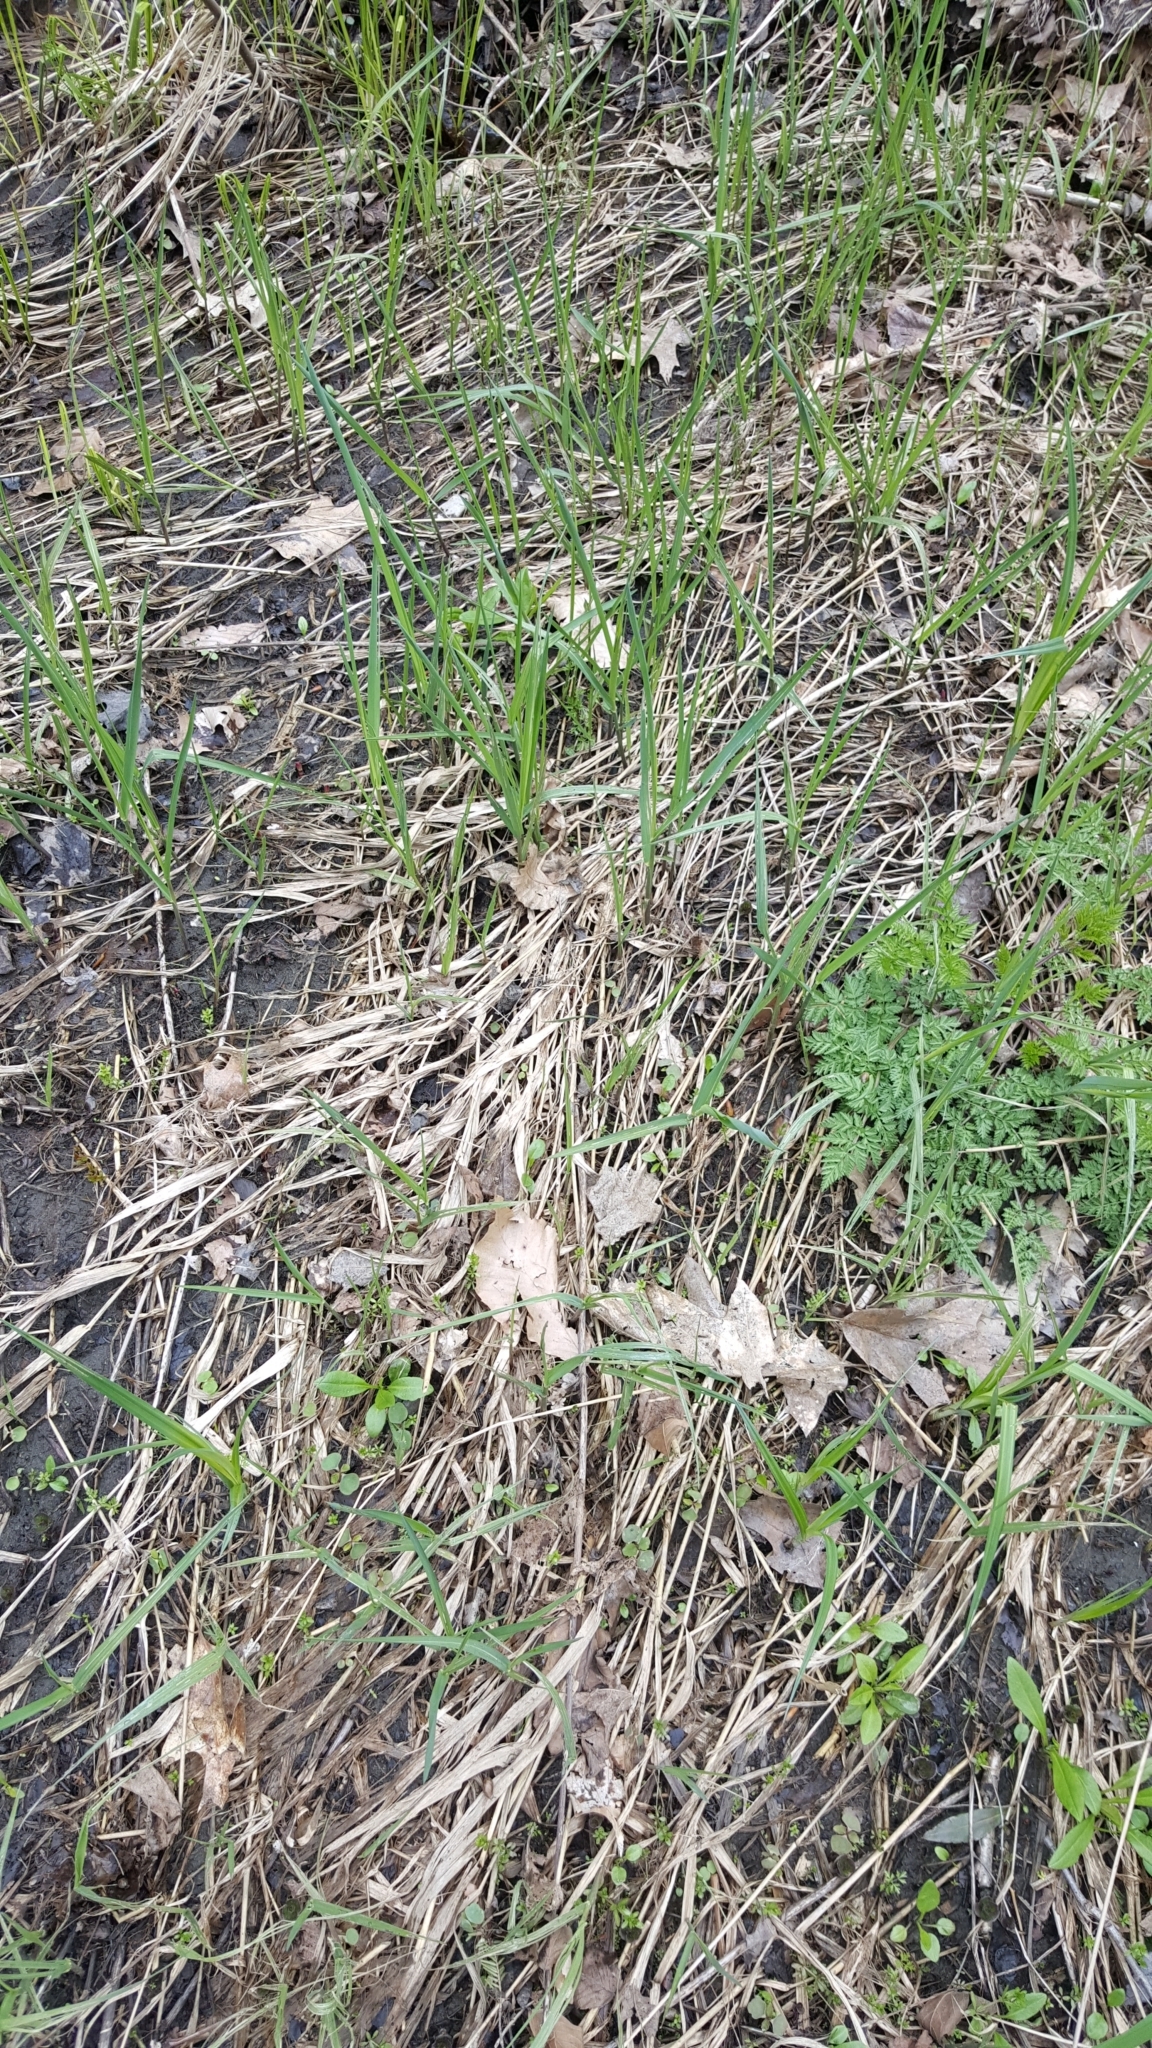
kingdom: Plantae
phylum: Tracheophyta
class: Liliopsida
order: Poales
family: Poaceae
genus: Phalaris
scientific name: Phalaris arundinacea
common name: Reed canary-grass
